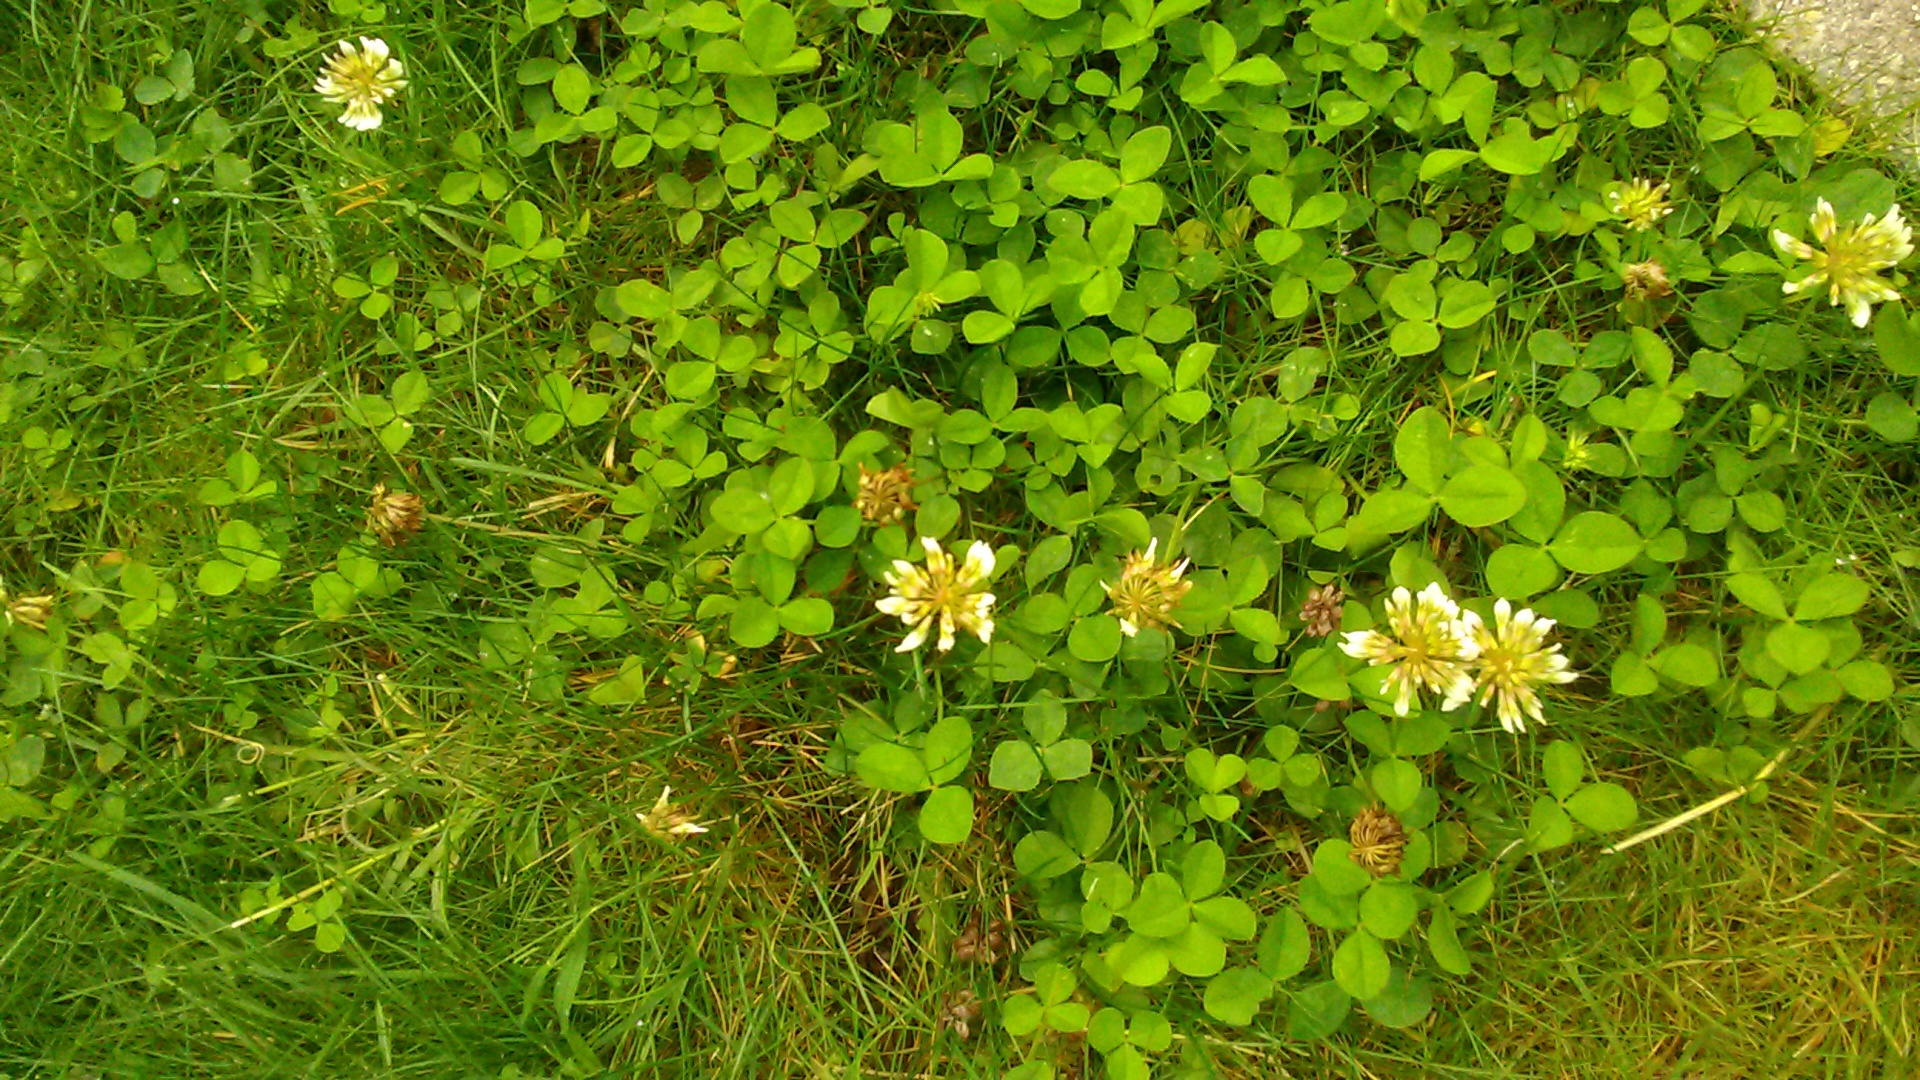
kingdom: Plantae
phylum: Tracheophyta
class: Magnoliopsida
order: Fabales
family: Fabaceae
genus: Trifolium
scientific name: Trifolium repens
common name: White clover
